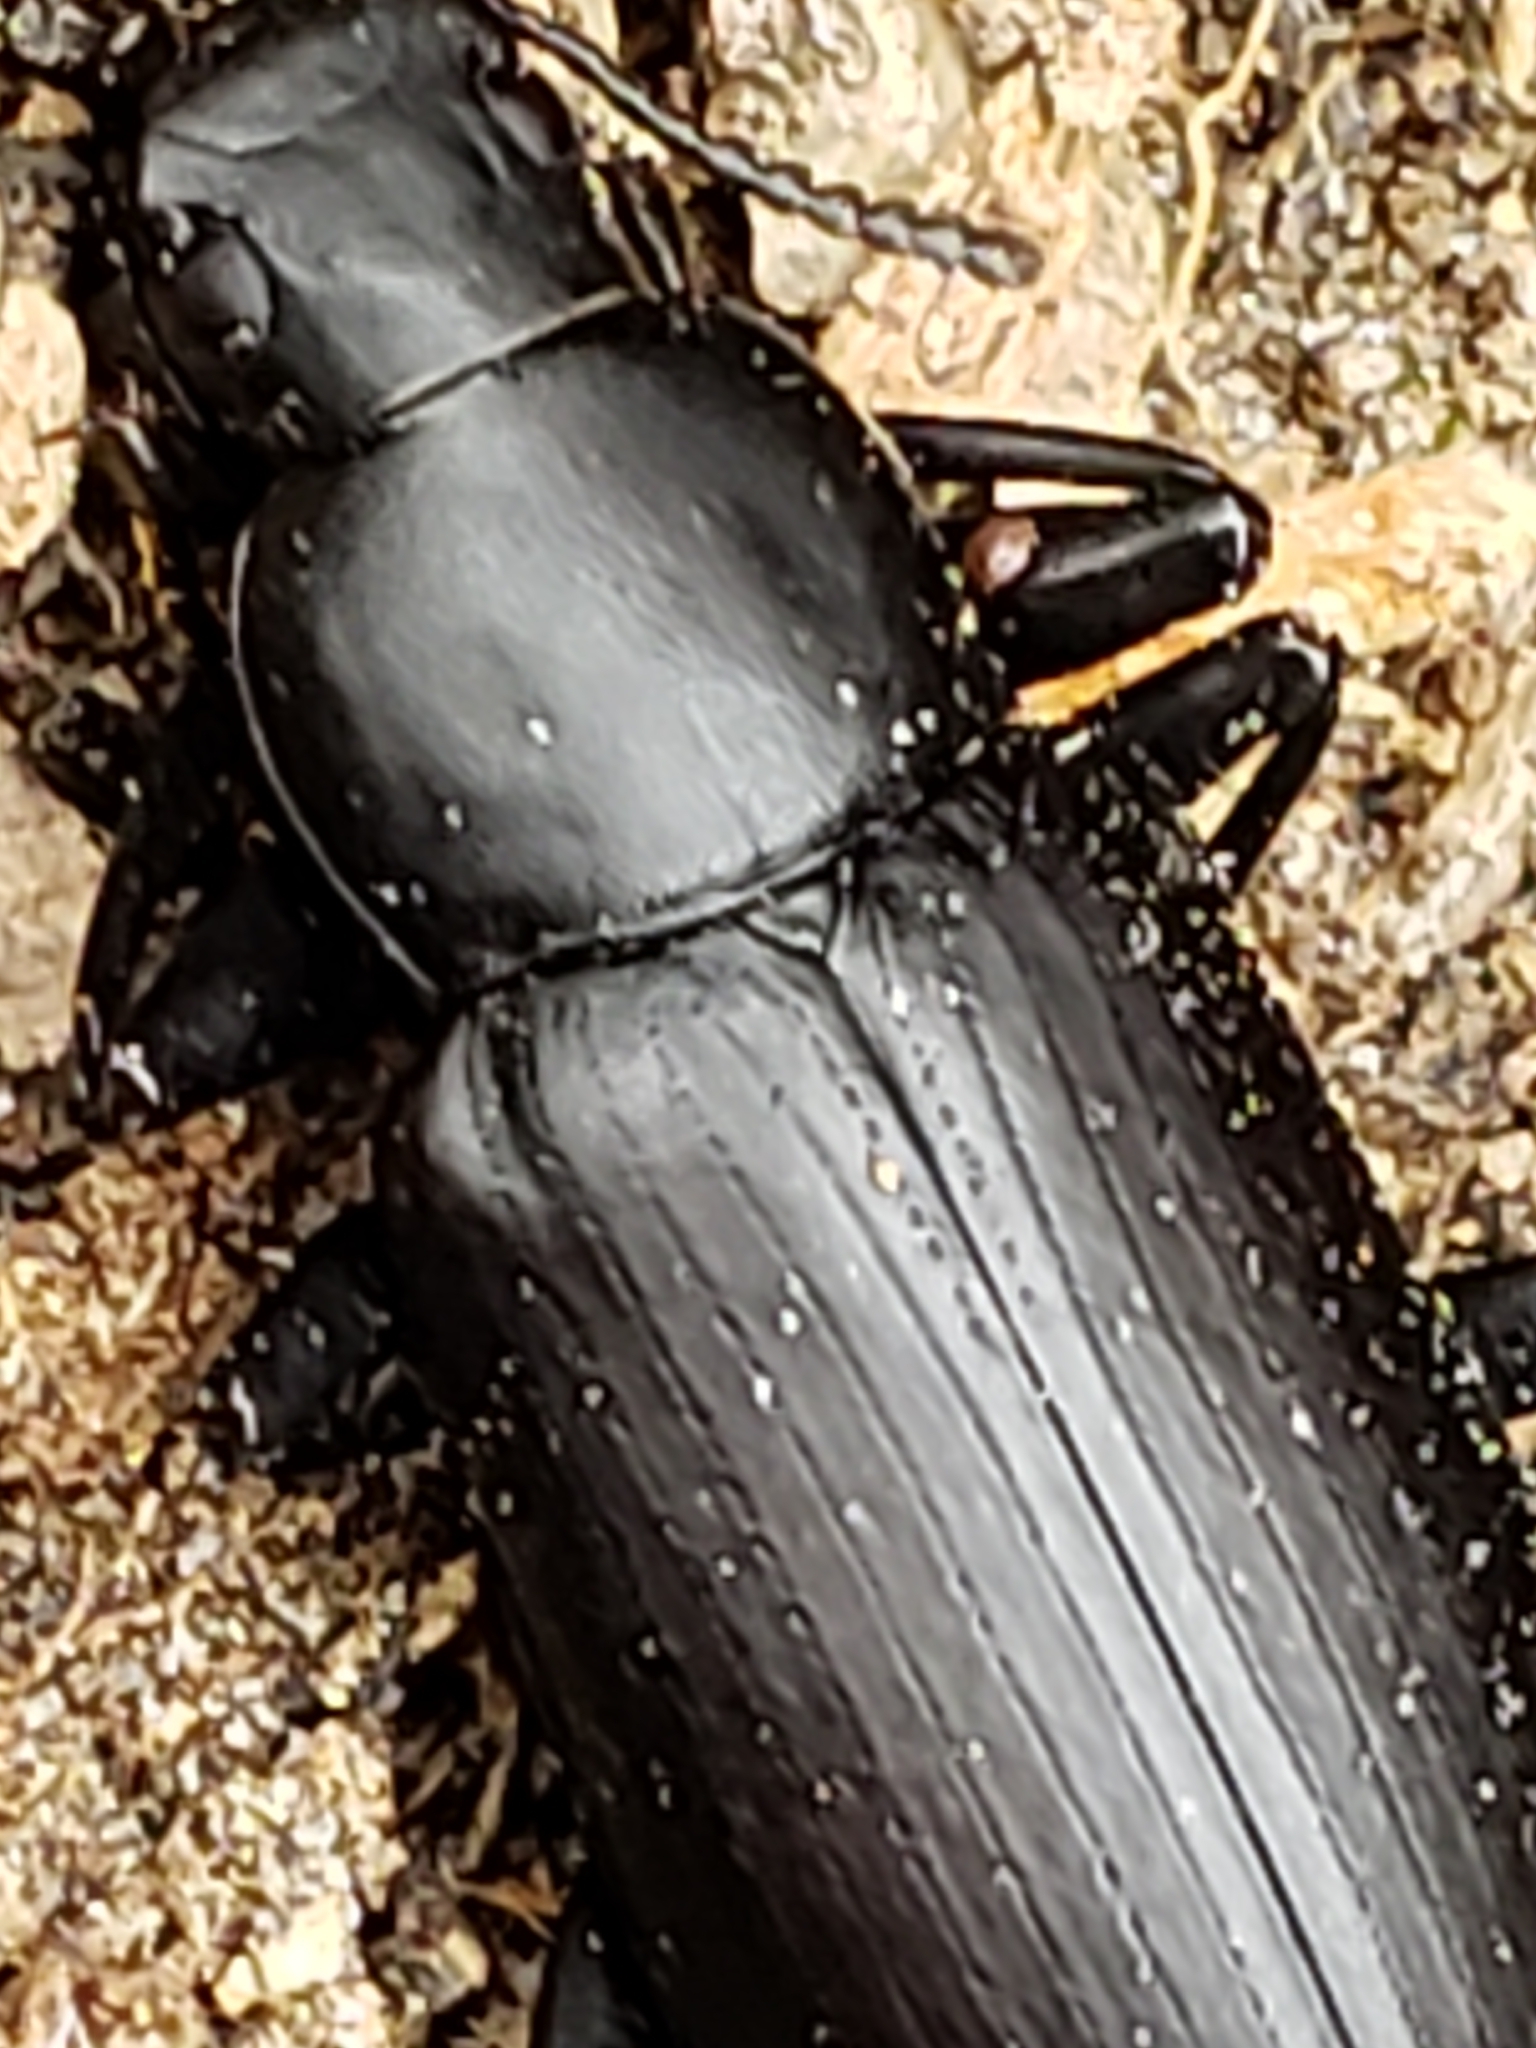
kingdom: Animalia
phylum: Arthropoda
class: Insecta
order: Coleoptera
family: Tenebrionidae
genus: Alobates
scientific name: Alobates
